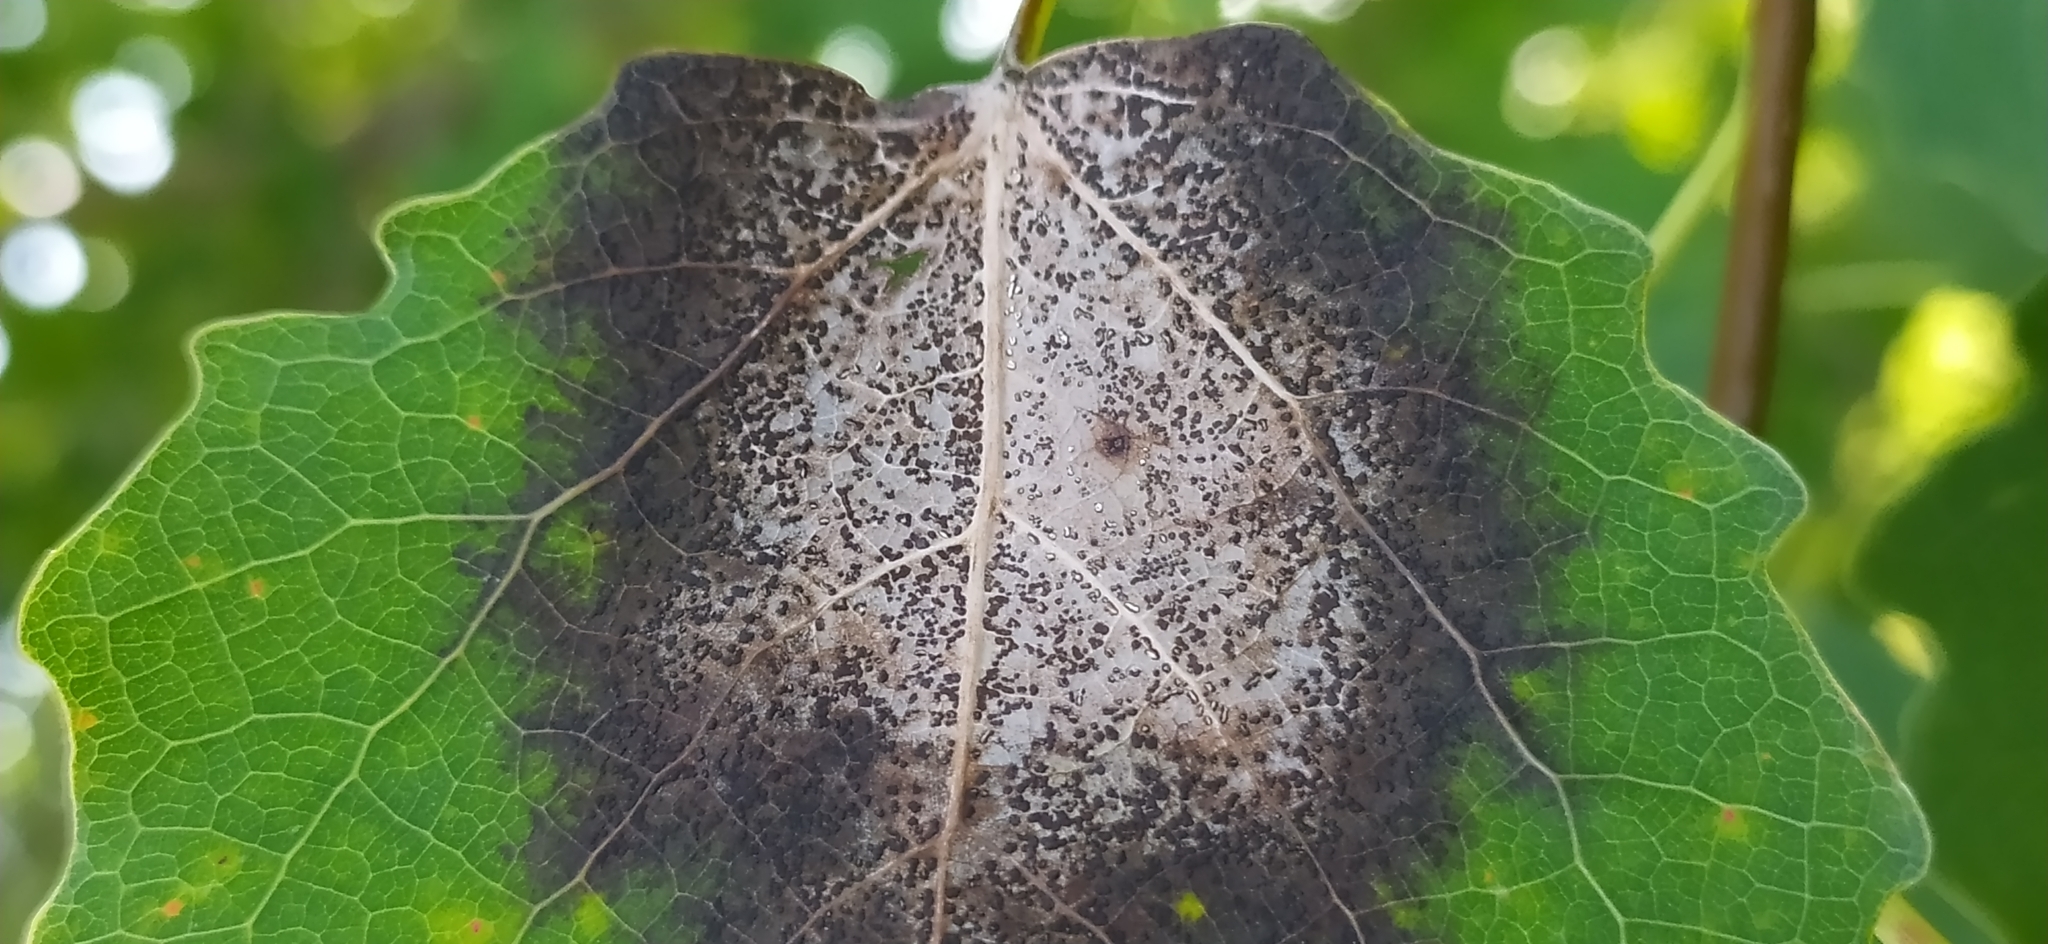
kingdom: Fungi
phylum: Ascomycota
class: Sordariomycetes
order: Diaporthales
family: Gnomoniaceae
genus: Titaeosporina
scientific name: Titaeosporina tremulae
